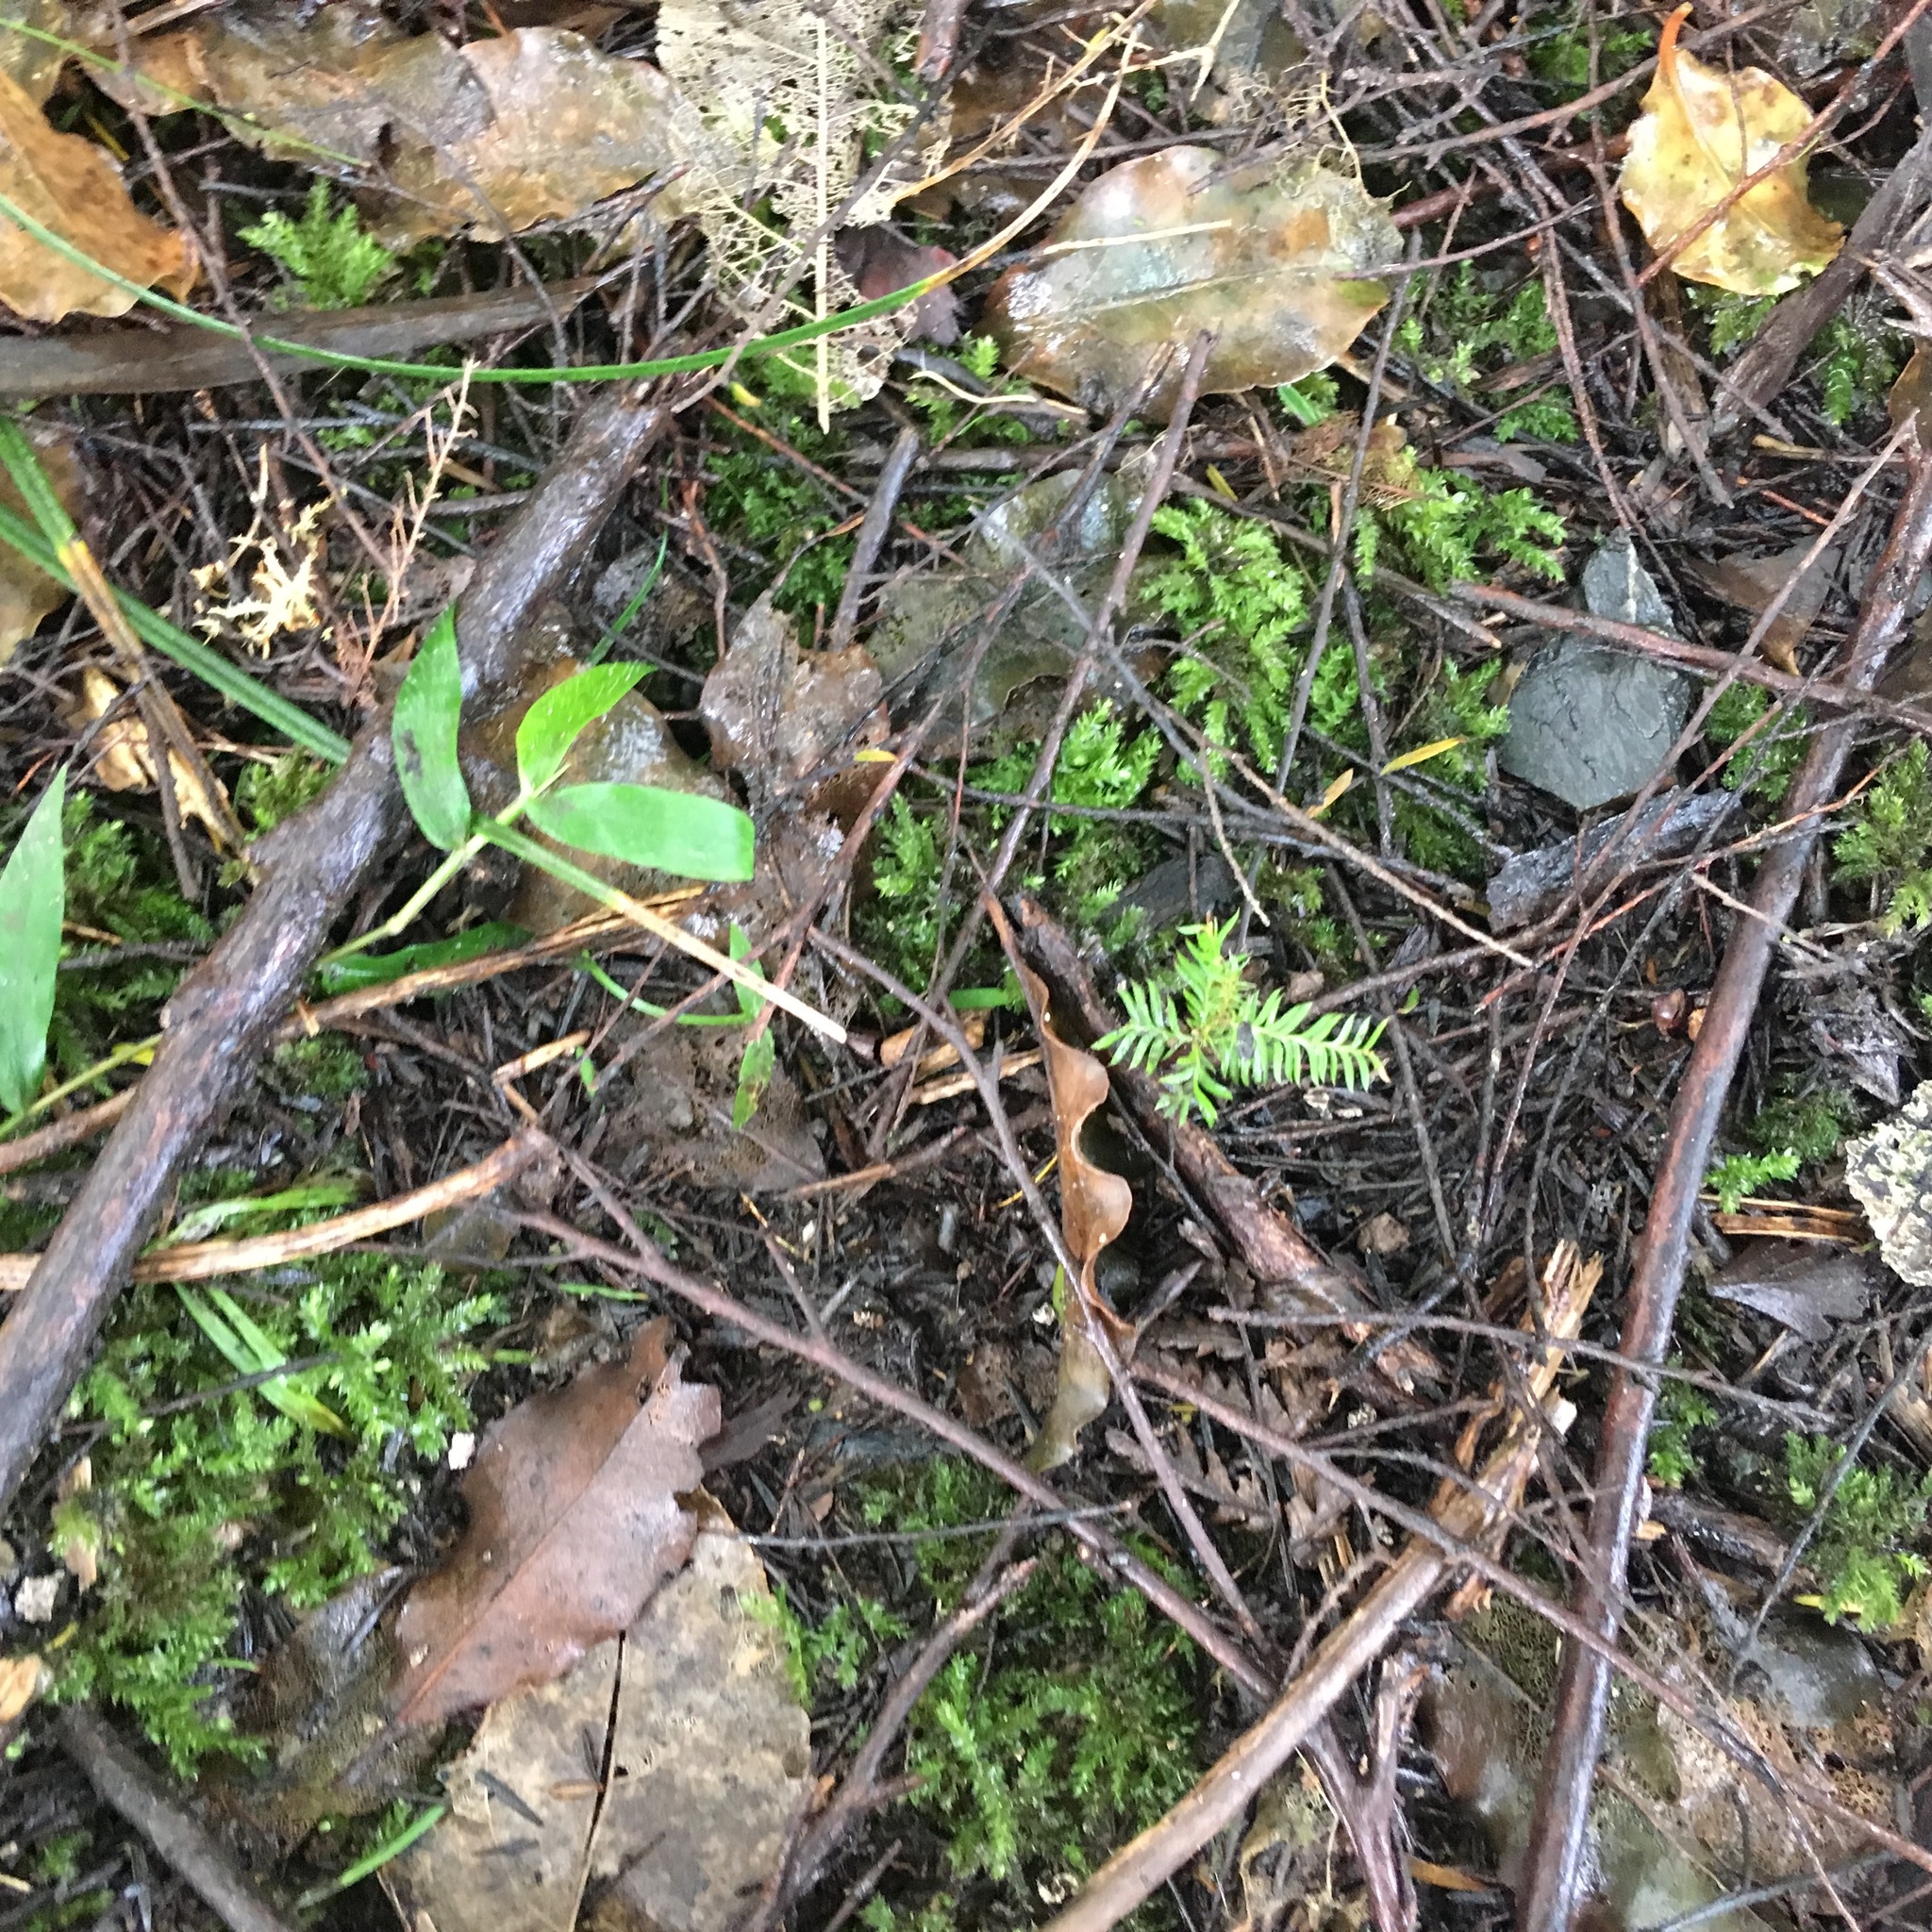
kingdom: Plantae
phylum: Tracheophyta
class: Pinopsida
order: Pinales
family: Podocarpaceae
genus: Dacrycarpus
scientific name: Dacrycarpus dacrydioides
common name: White pine
